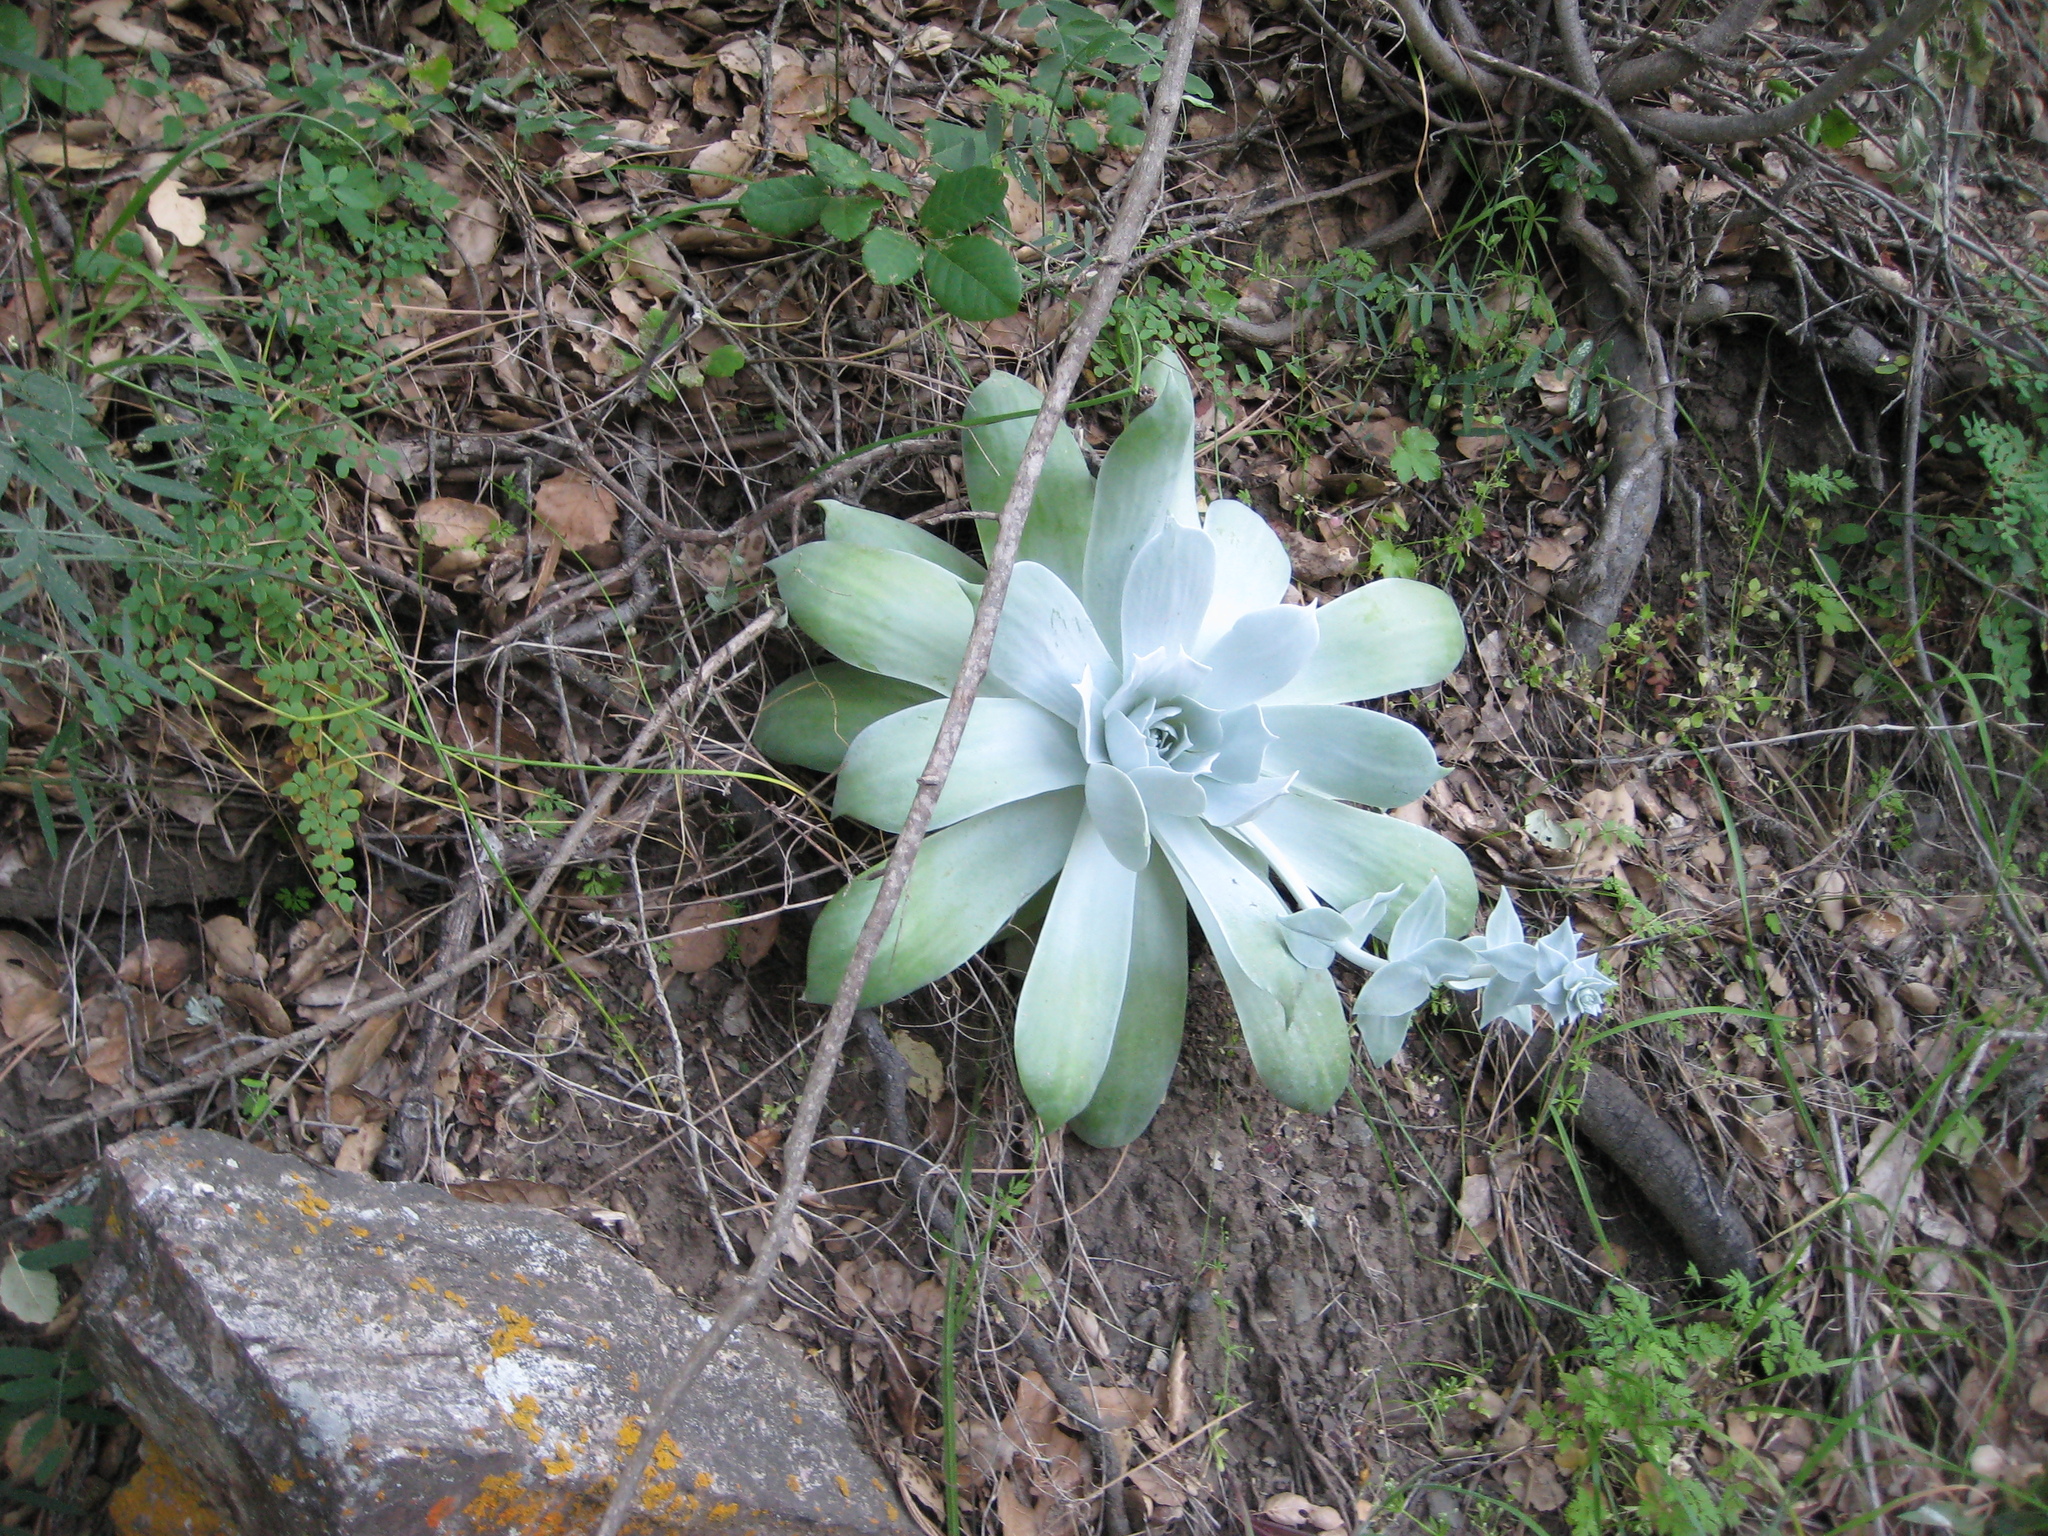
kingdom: Plantae
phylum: Tracheophyta
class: Polypodiopsida
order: Polypodiales
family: Pteridaceae
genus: Pellaea
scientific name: Pellaea andromedifolia
